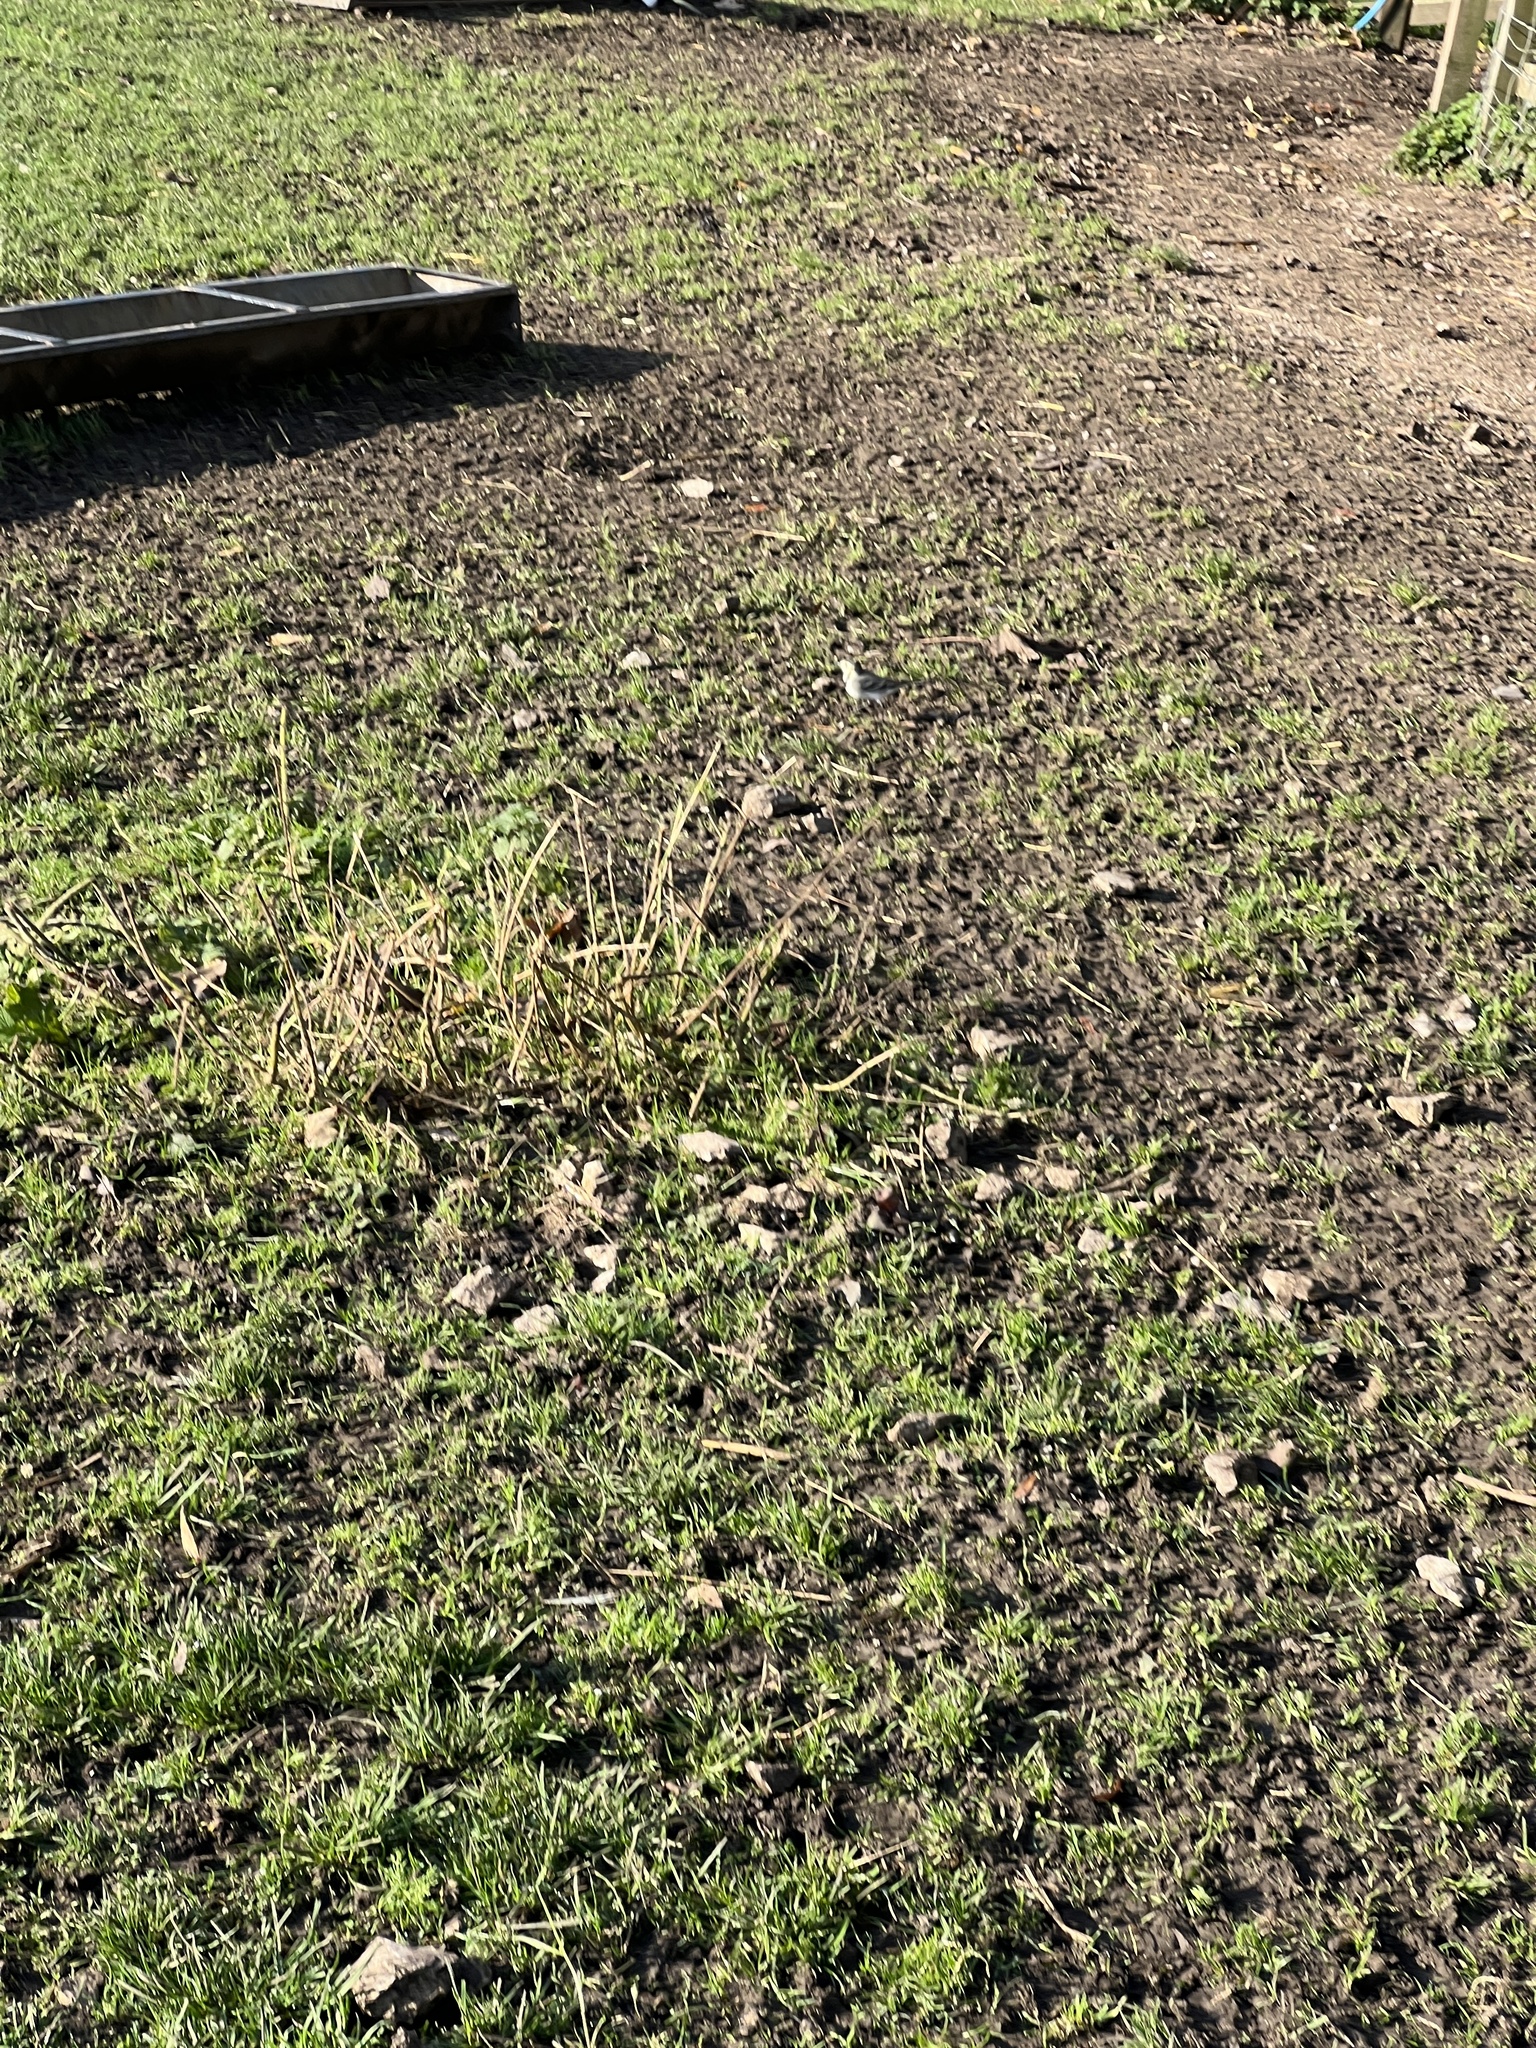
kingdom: Animalia
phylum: Chordata
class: Aves
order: Passeriformes
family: Motacillidae
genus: Motacilla
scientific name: Motacilla alba
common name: White wagtail
